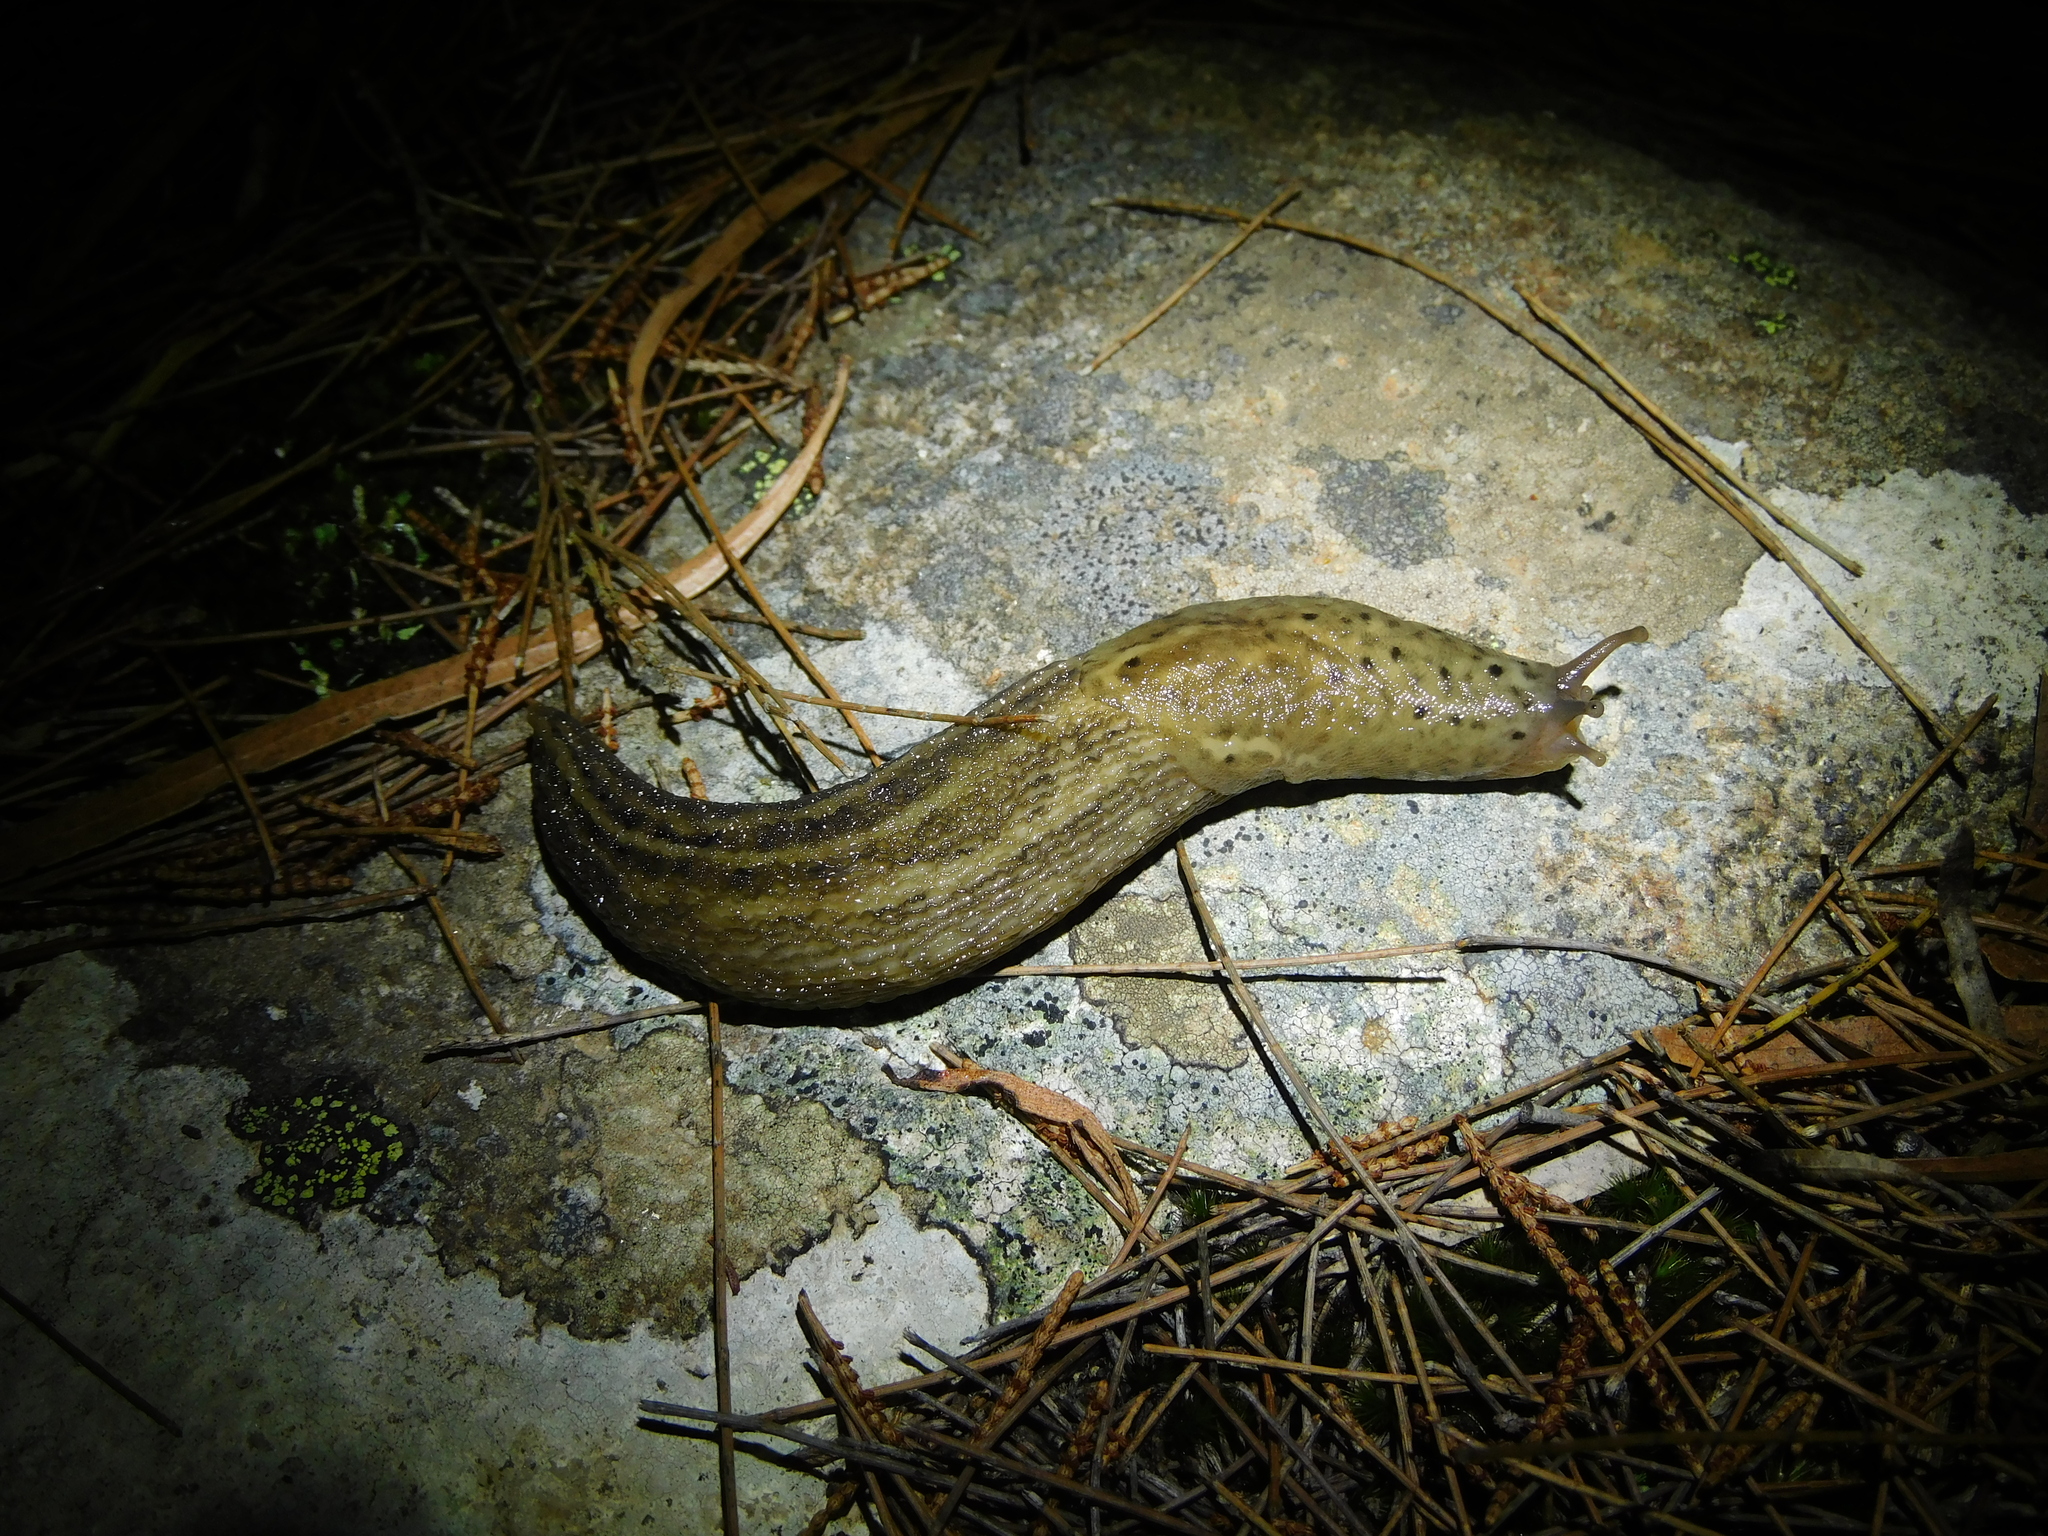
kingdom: Animalia
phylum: Mollusca
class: Gastropoda
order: Stylommatophora
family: Limacidae
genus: Limax
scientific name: Limax maximus
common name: Great grey slug
